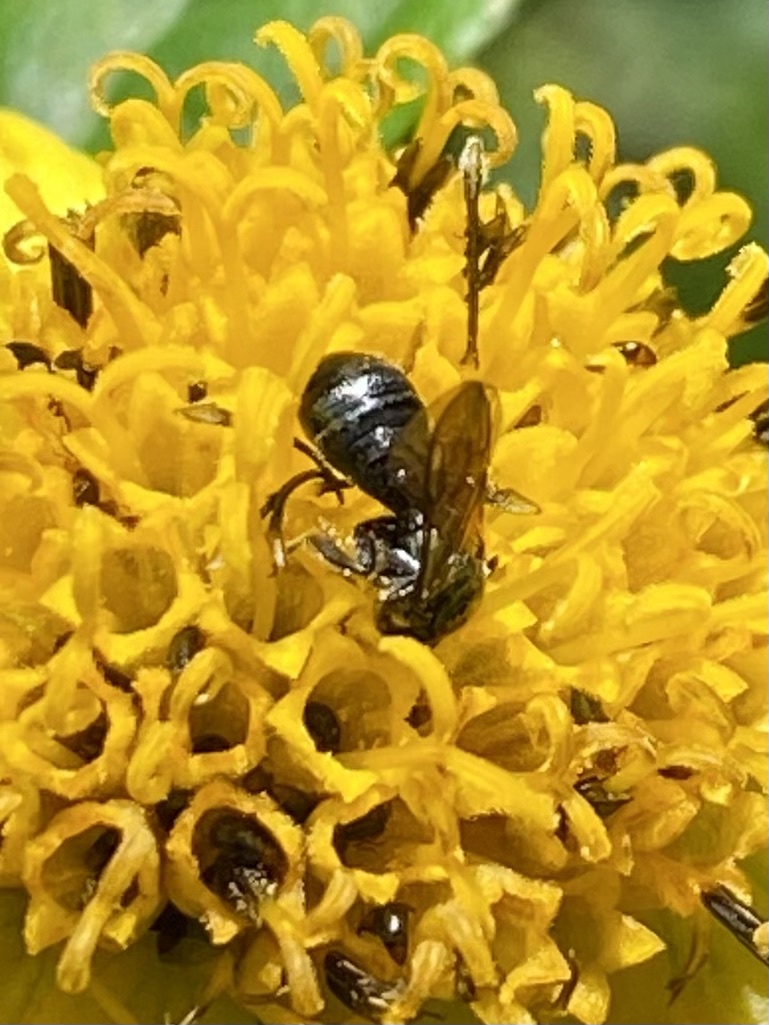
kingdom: Animalia
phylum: Arthropoda
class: Insecta
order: Hymenoptera
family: Apidae
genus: Ceratina
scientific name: Ceratina
